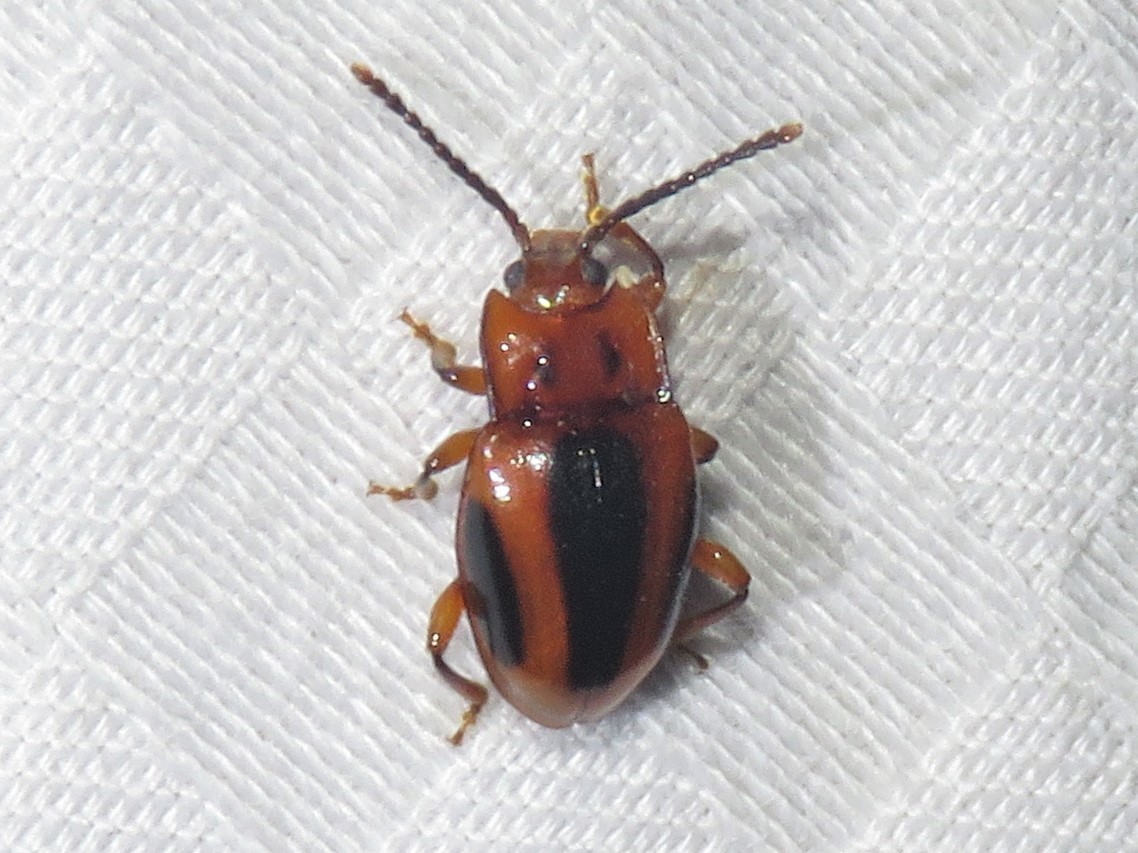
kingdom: Animalia
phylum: Arthropoda
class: Insecta
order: Coleoptera
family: Endomychidae
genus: Aphorista
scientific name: Aphorista vittata
